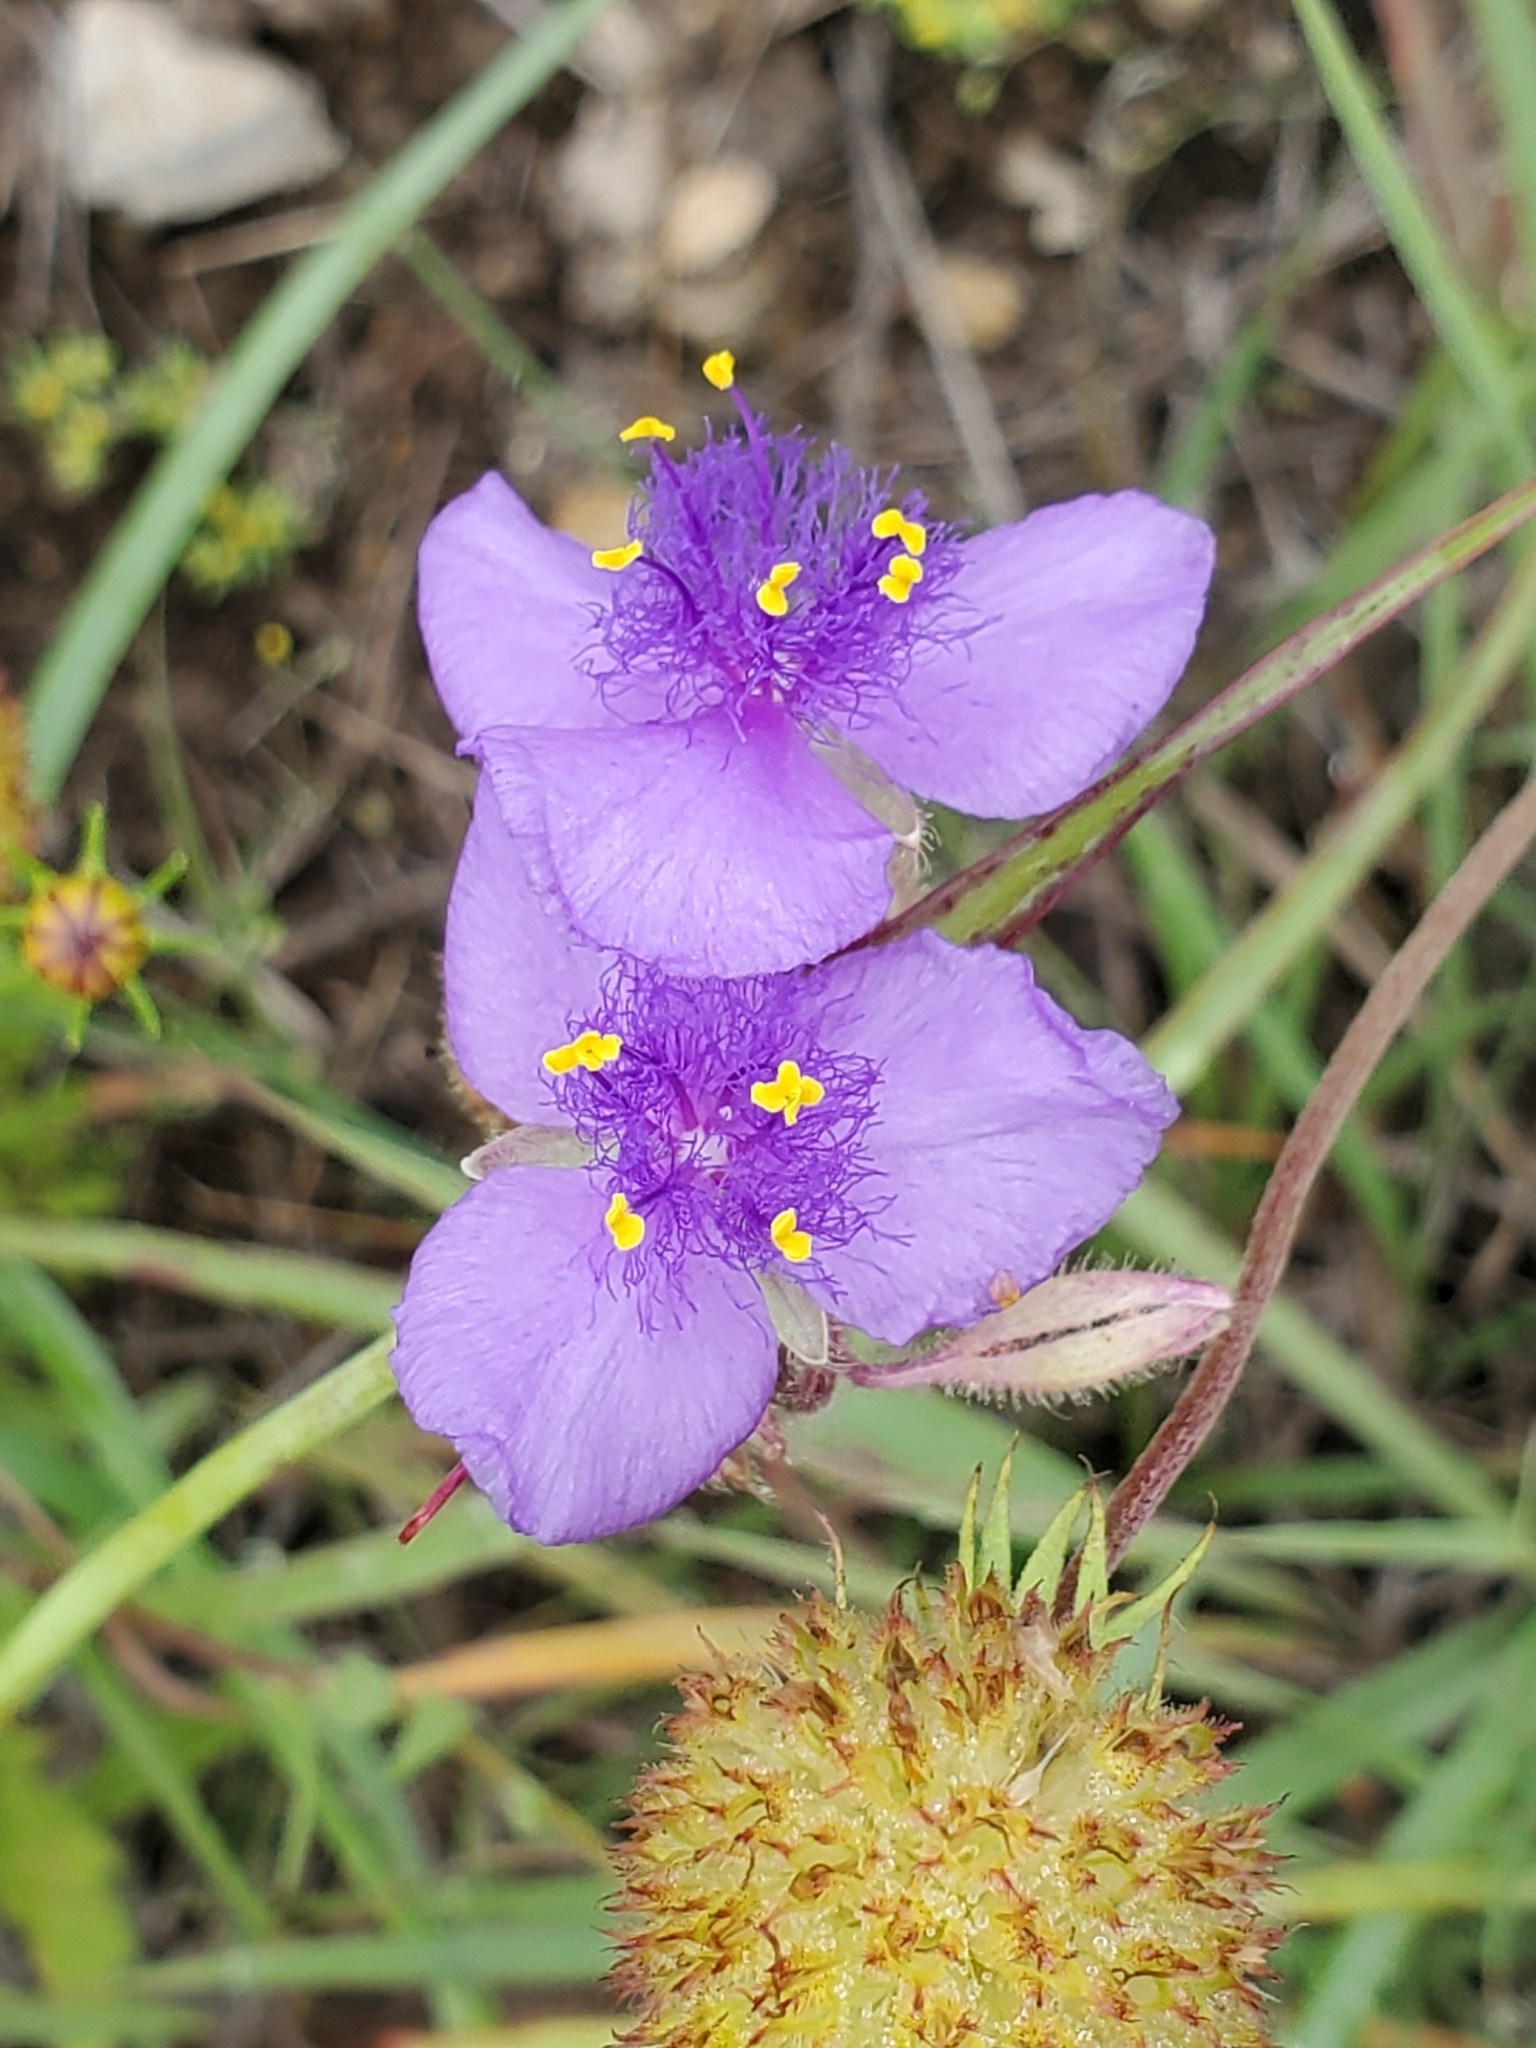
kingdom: Plantae
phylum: Tracheophyta
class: Liliopsida
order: Commelinales
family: Commelinaceae
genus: Tradescantia
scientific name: Tradescantia hirsutiflora
